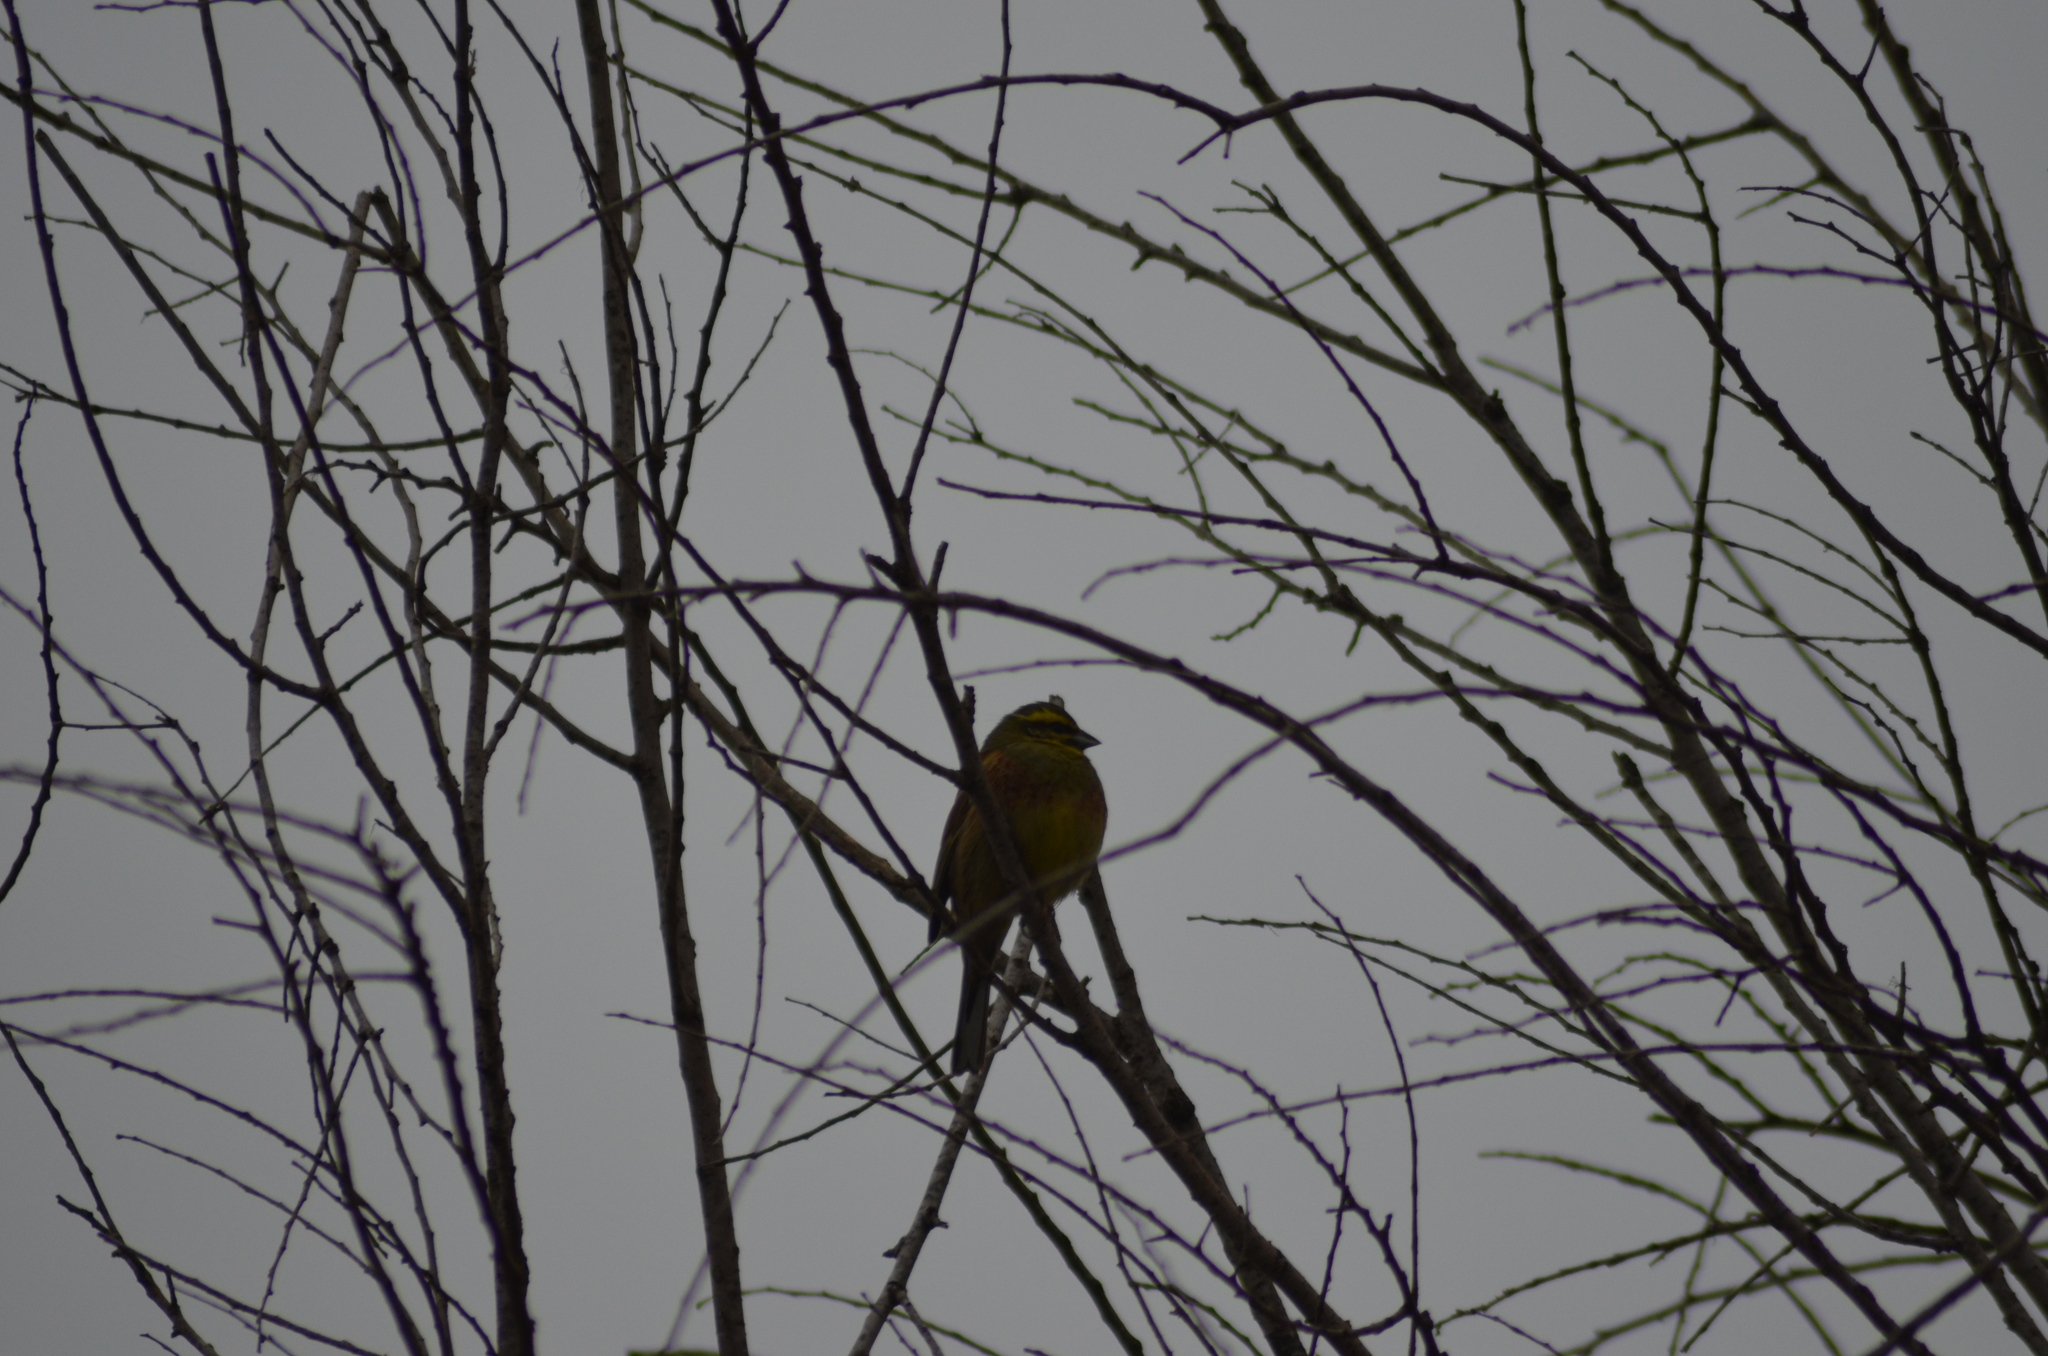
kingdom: Animalia
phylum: Chordata
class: Aves
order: Passeriformes
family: Emberizidae
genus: Emberiza
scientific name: Emberiza cirlus
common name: Cirl bunting
